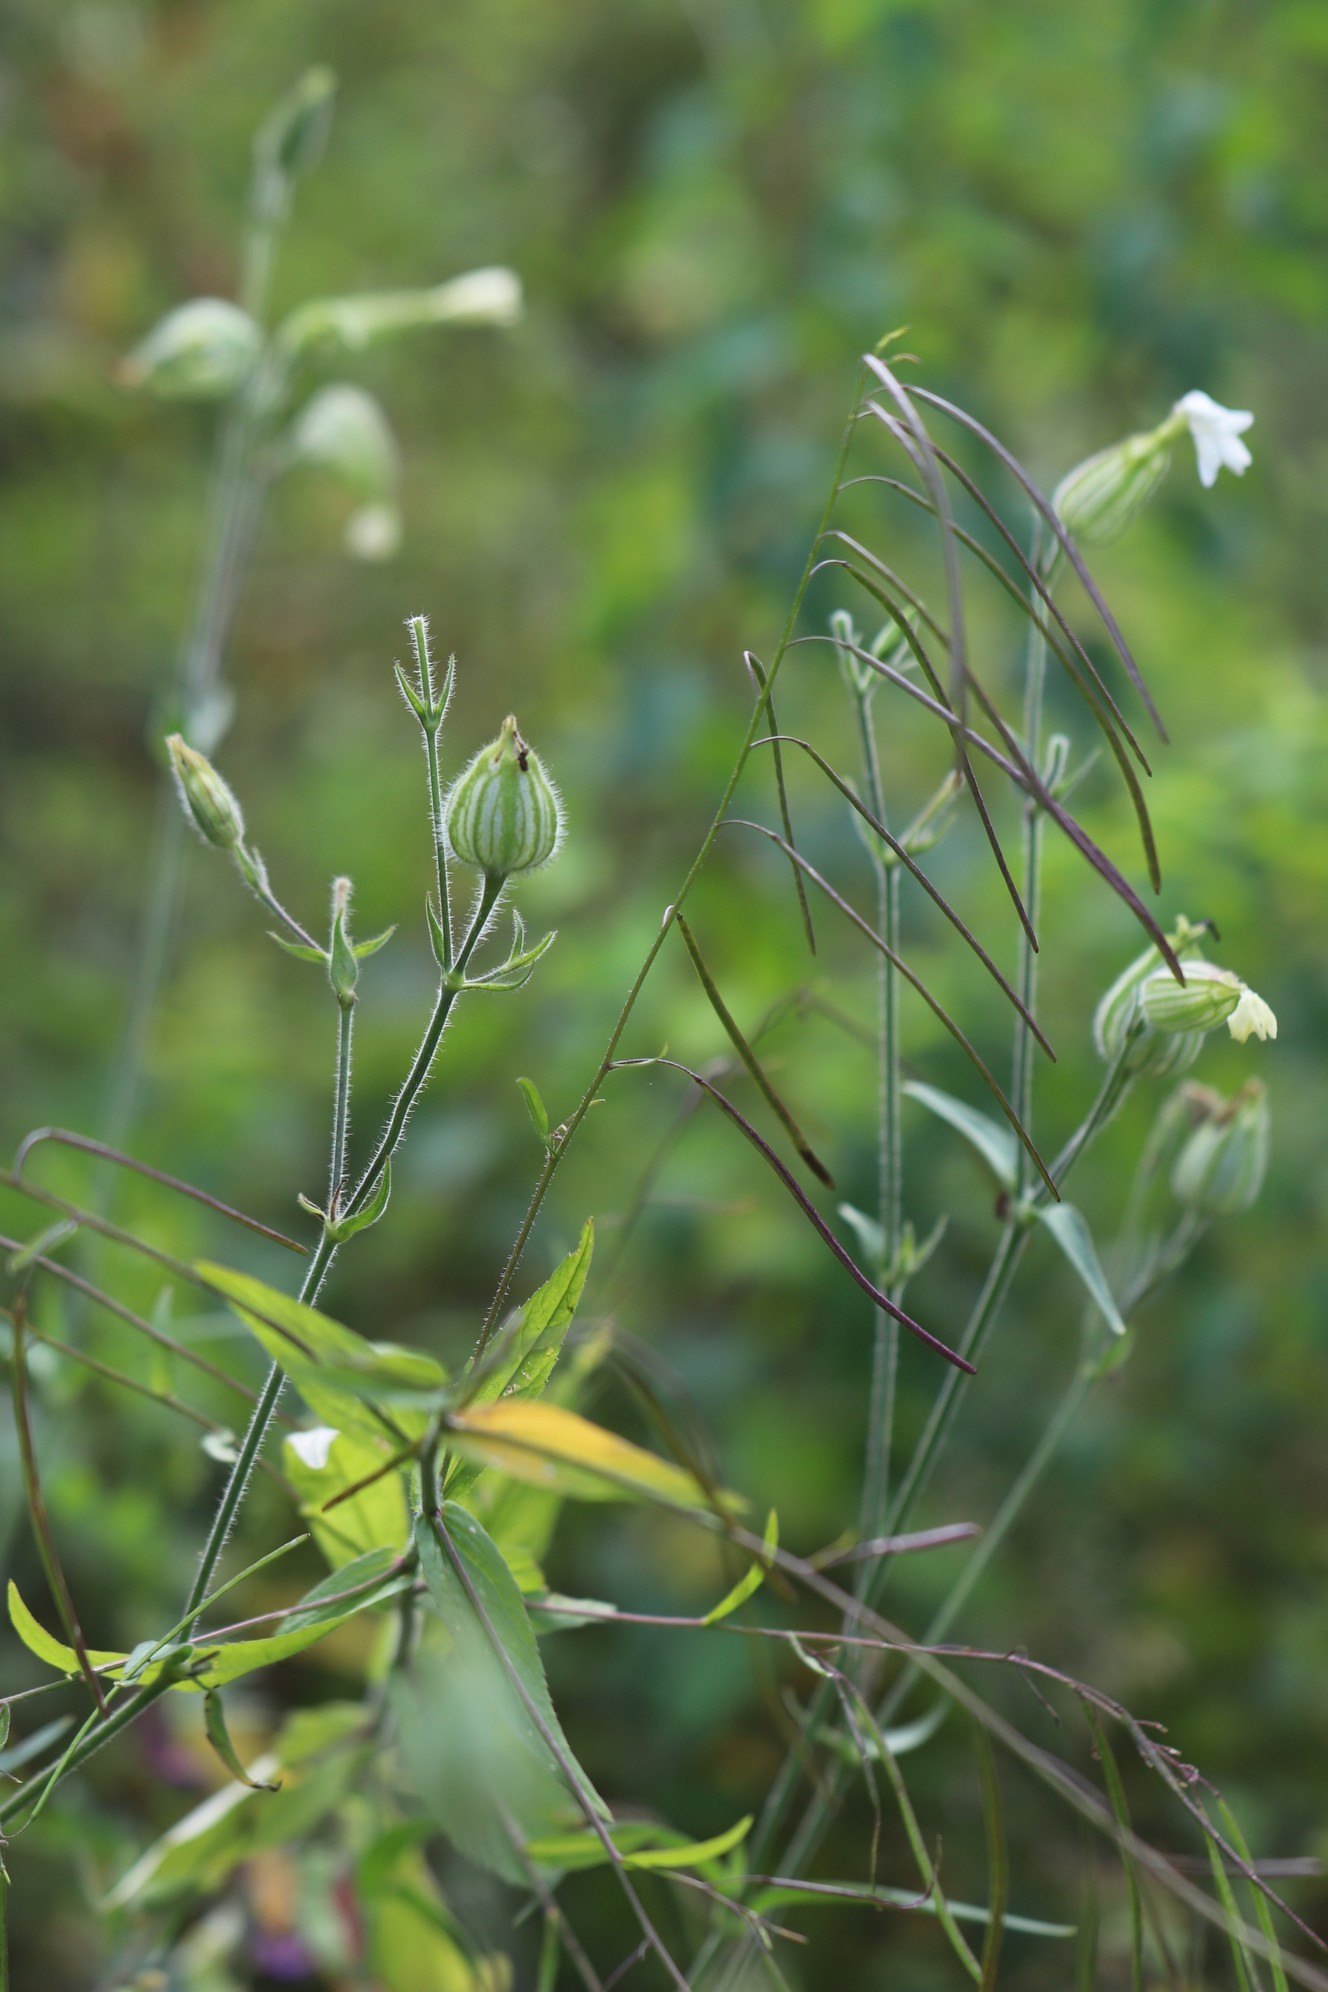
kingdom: Plantae
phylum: Tracheophyta
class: Magnoliopsida
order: Caryophyllales
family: Caryophyllaceae
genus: Silene
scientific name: Silene latifolia
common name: White campion
